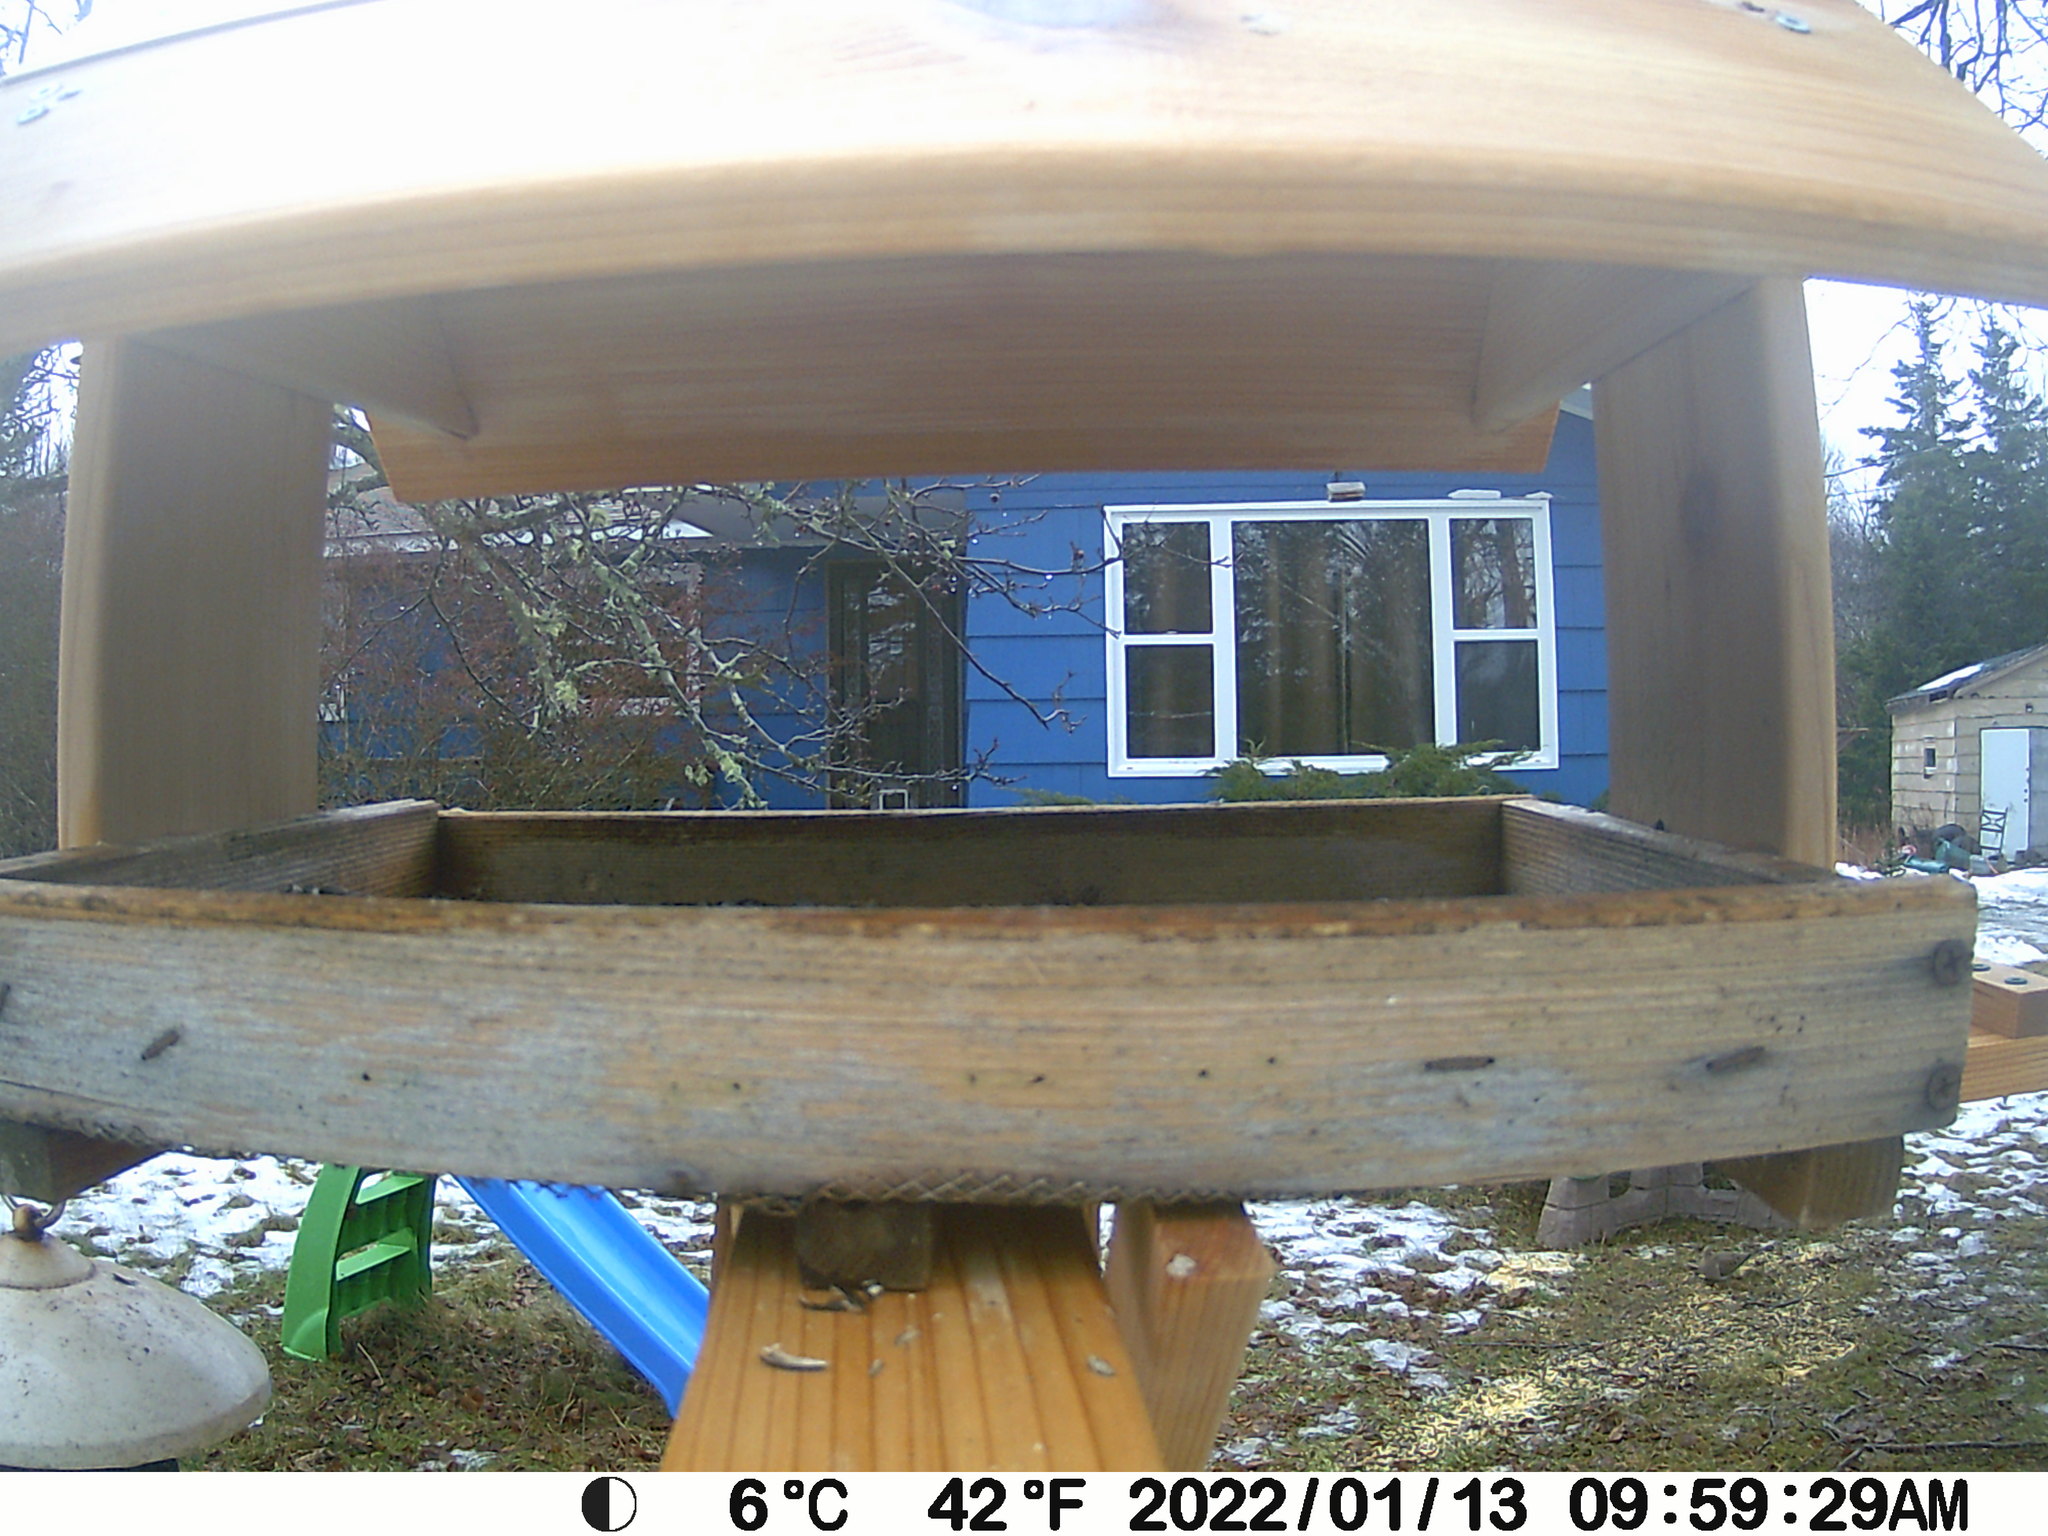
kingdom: Animalia
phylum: Chordata
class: Aves
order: Columbiformes
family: Columbidae
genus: Zenaida
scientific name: Zenaida macroura
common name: Mourning dove
